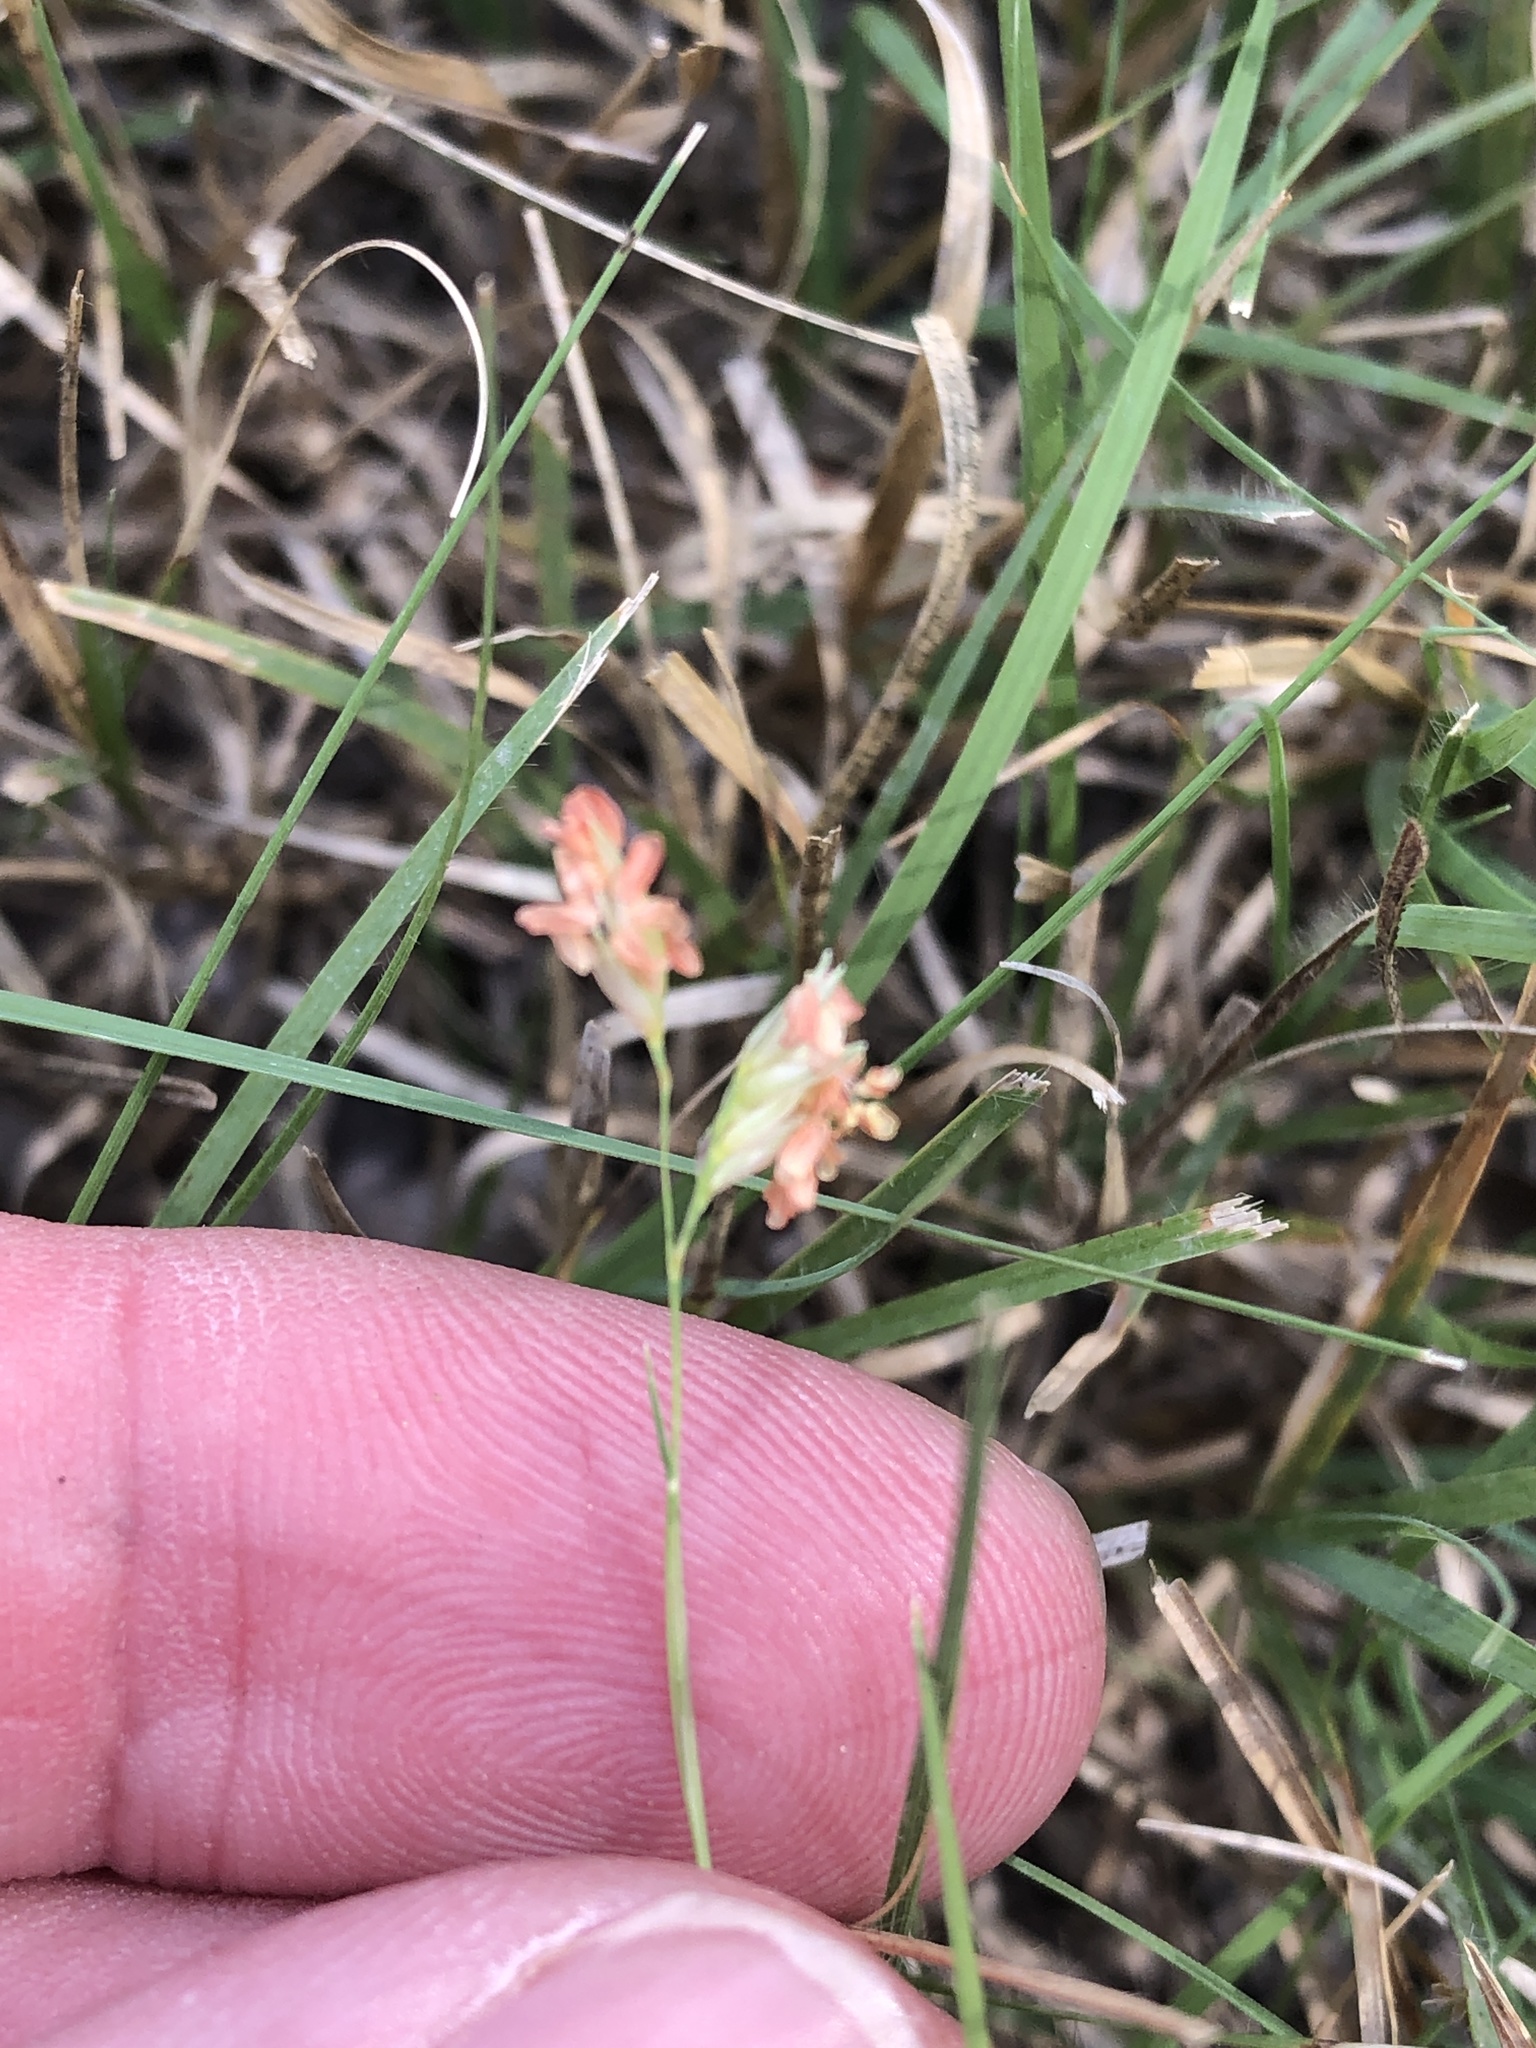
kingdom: Plantae
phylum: Tracheophyta
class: Liliopsida
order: Poales
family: Poaceae
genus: Bouteloua
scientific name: Bouteloua dactyloides
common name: Buffalo grass
